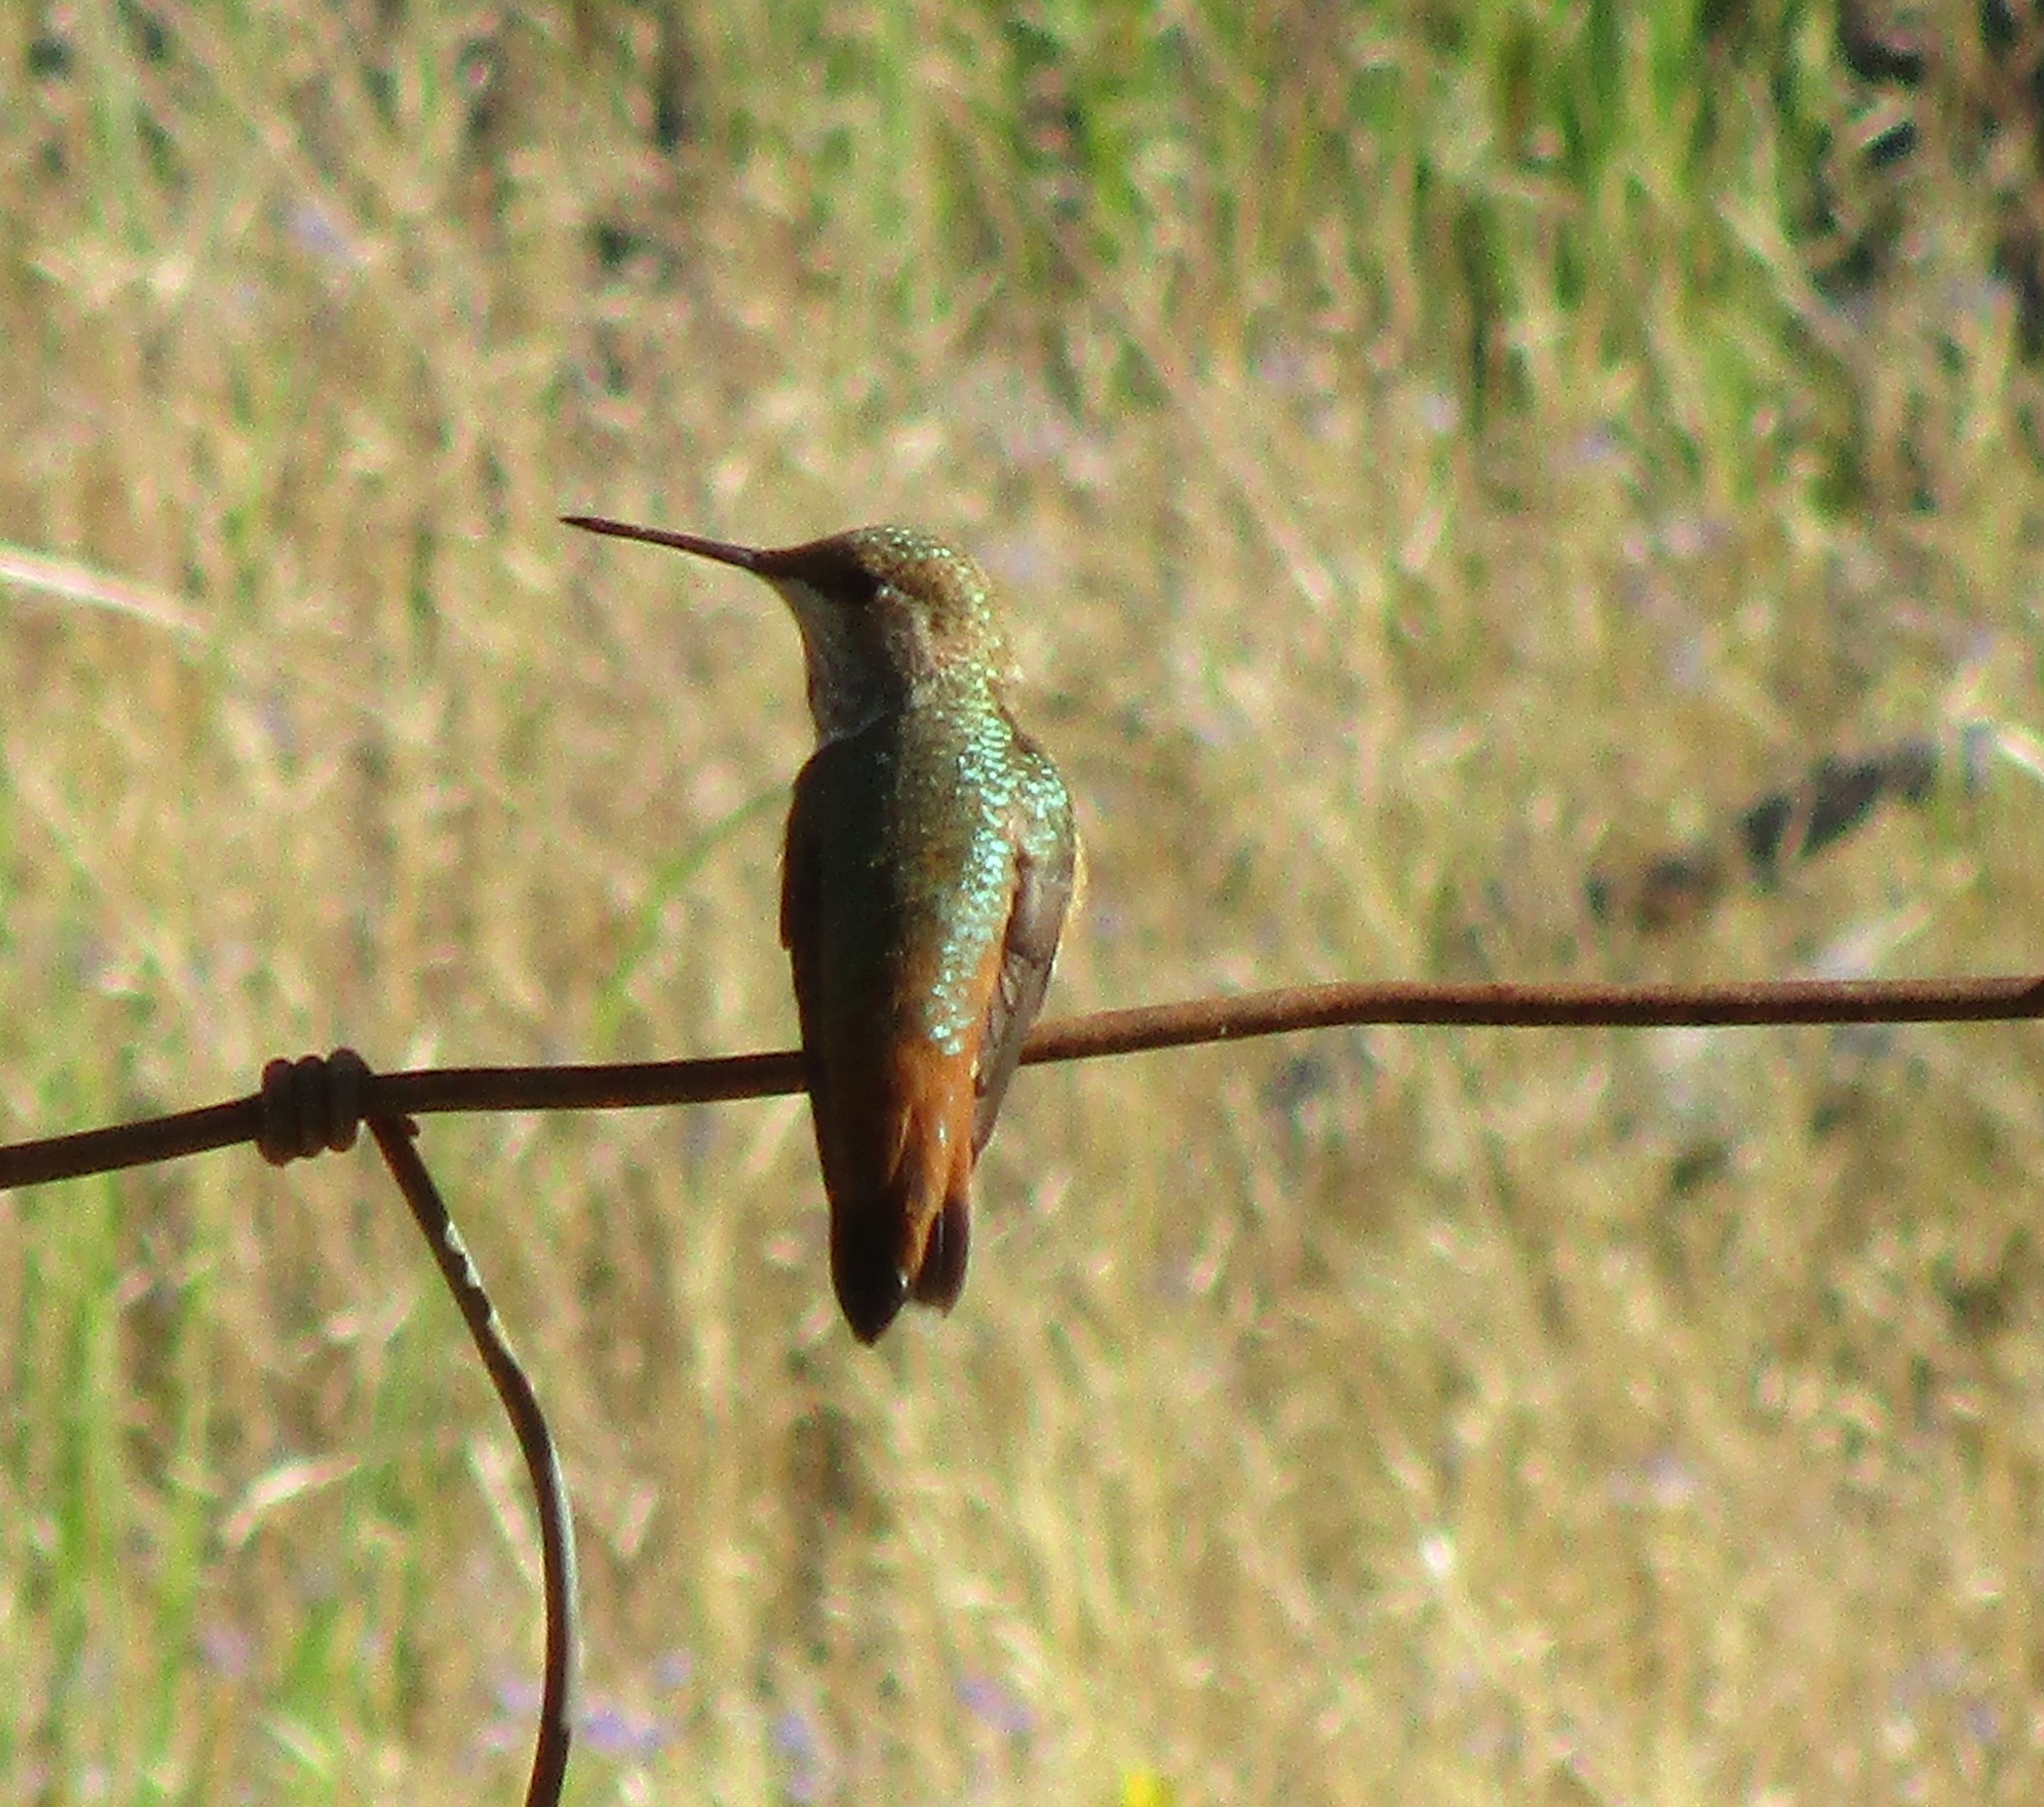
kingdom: Animalia
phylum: Chordata
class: Aves
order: Apodiformes
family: Trochilidae
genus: Selasphorus
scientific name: Selasphorus rufus
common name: Rufous hummingbird
